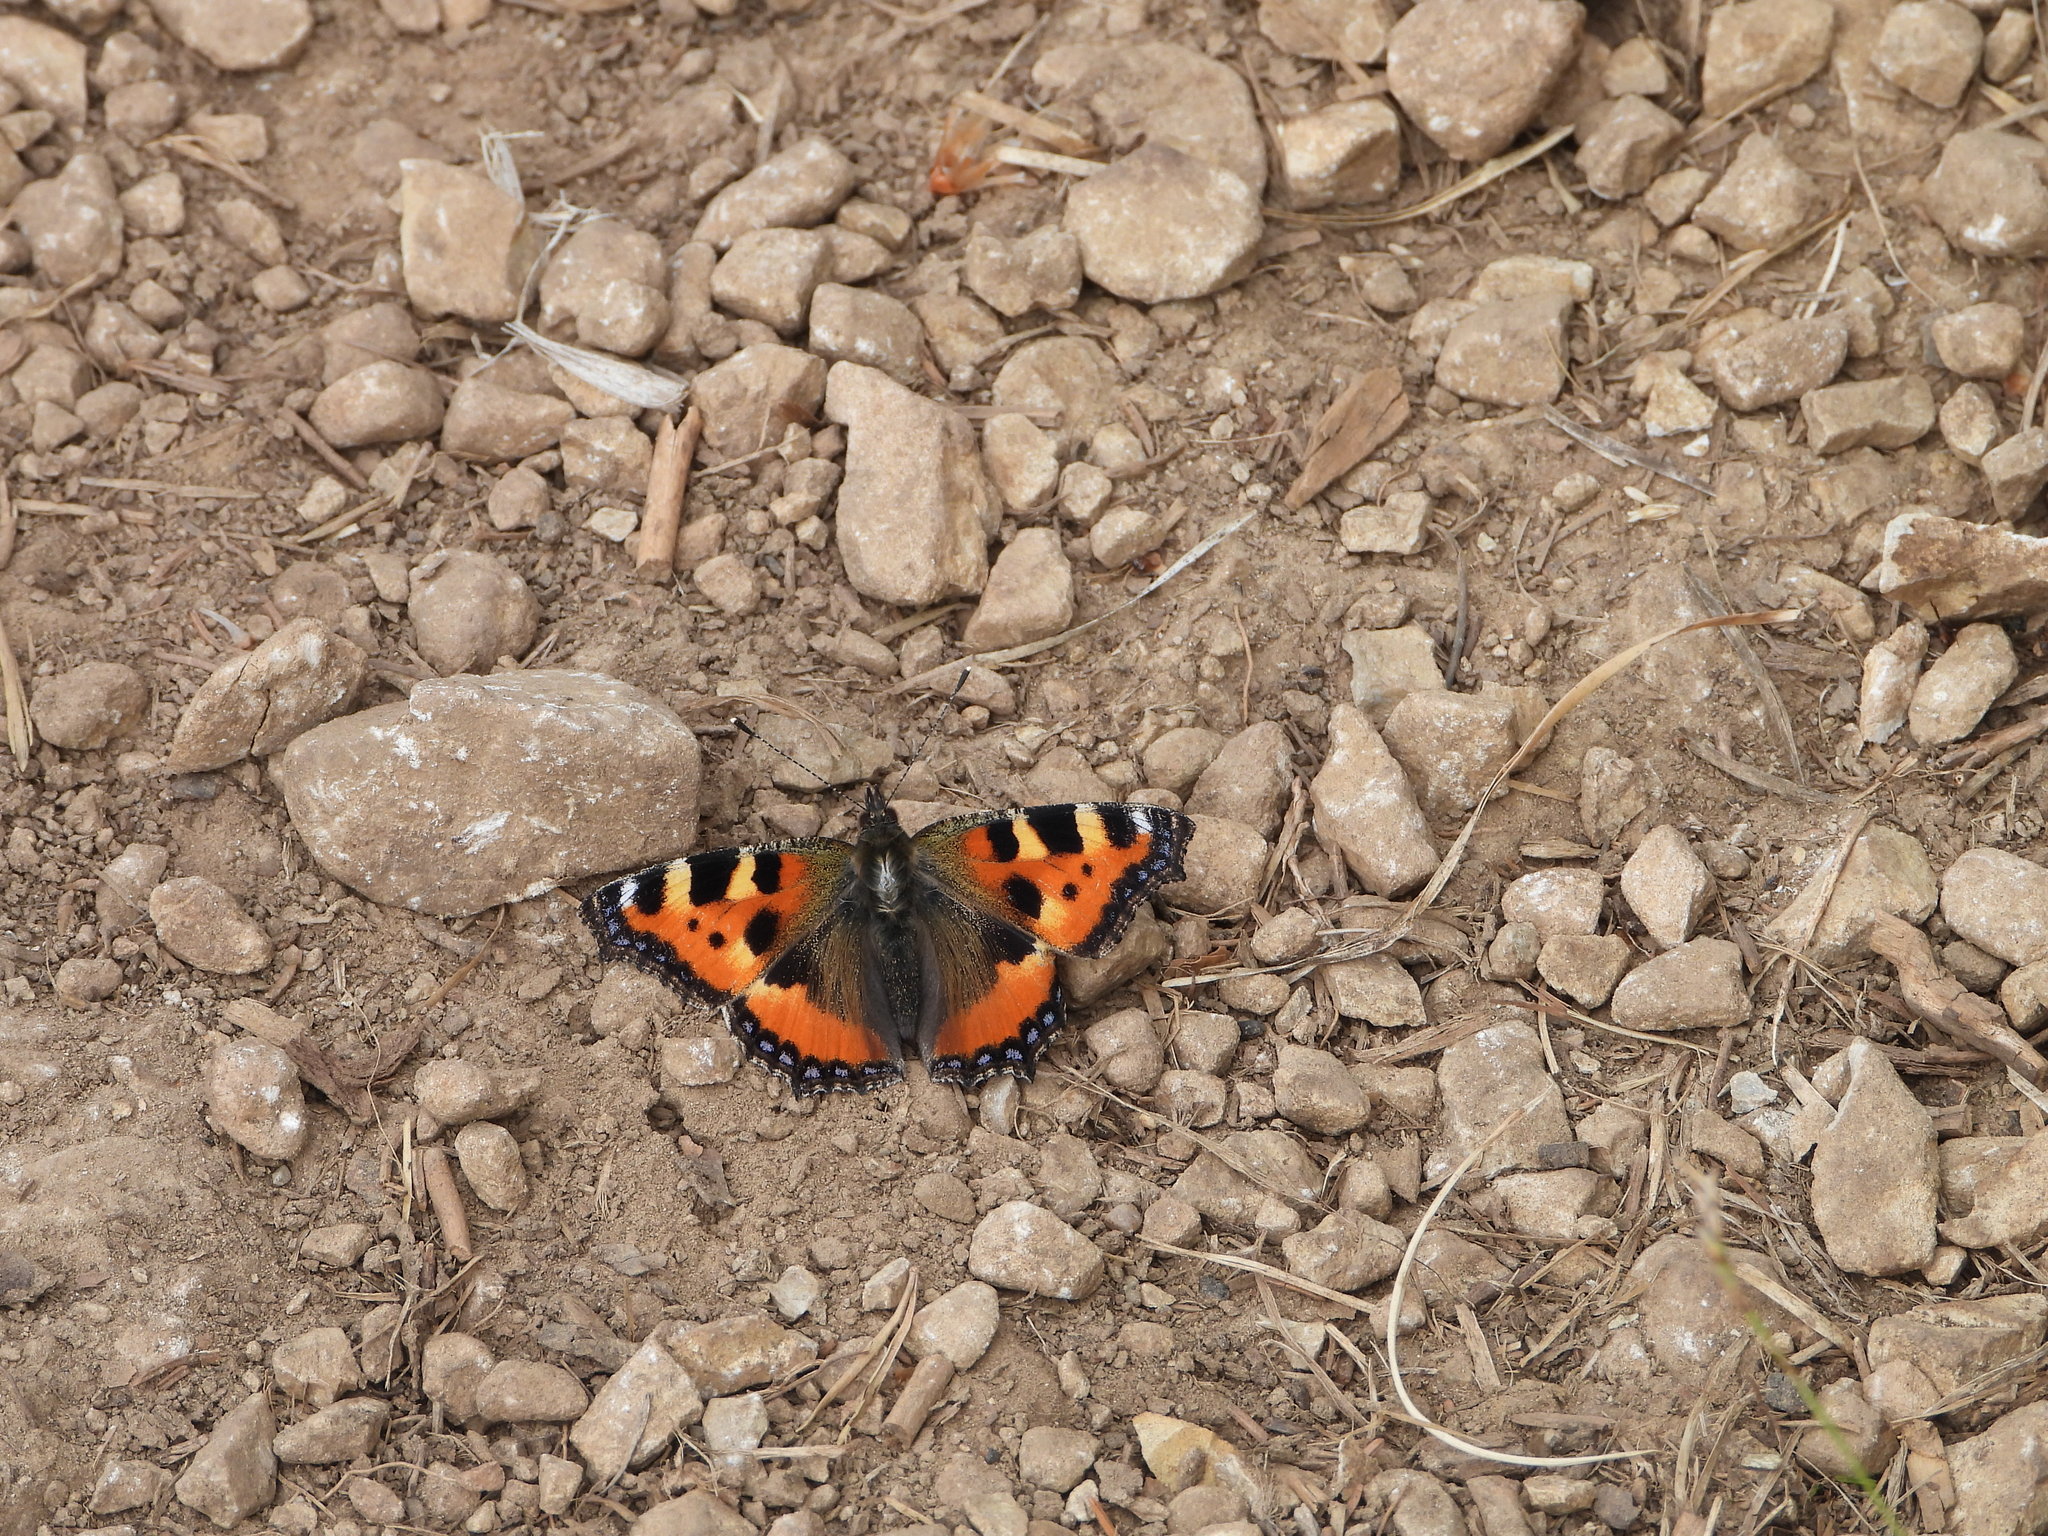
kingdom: Animalia
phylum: Arthropoda
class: Insecta
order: Lepidoptera
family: Nymphalidae
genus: Aglais
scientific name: Aglais urticae
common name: Small tortoiseshell
